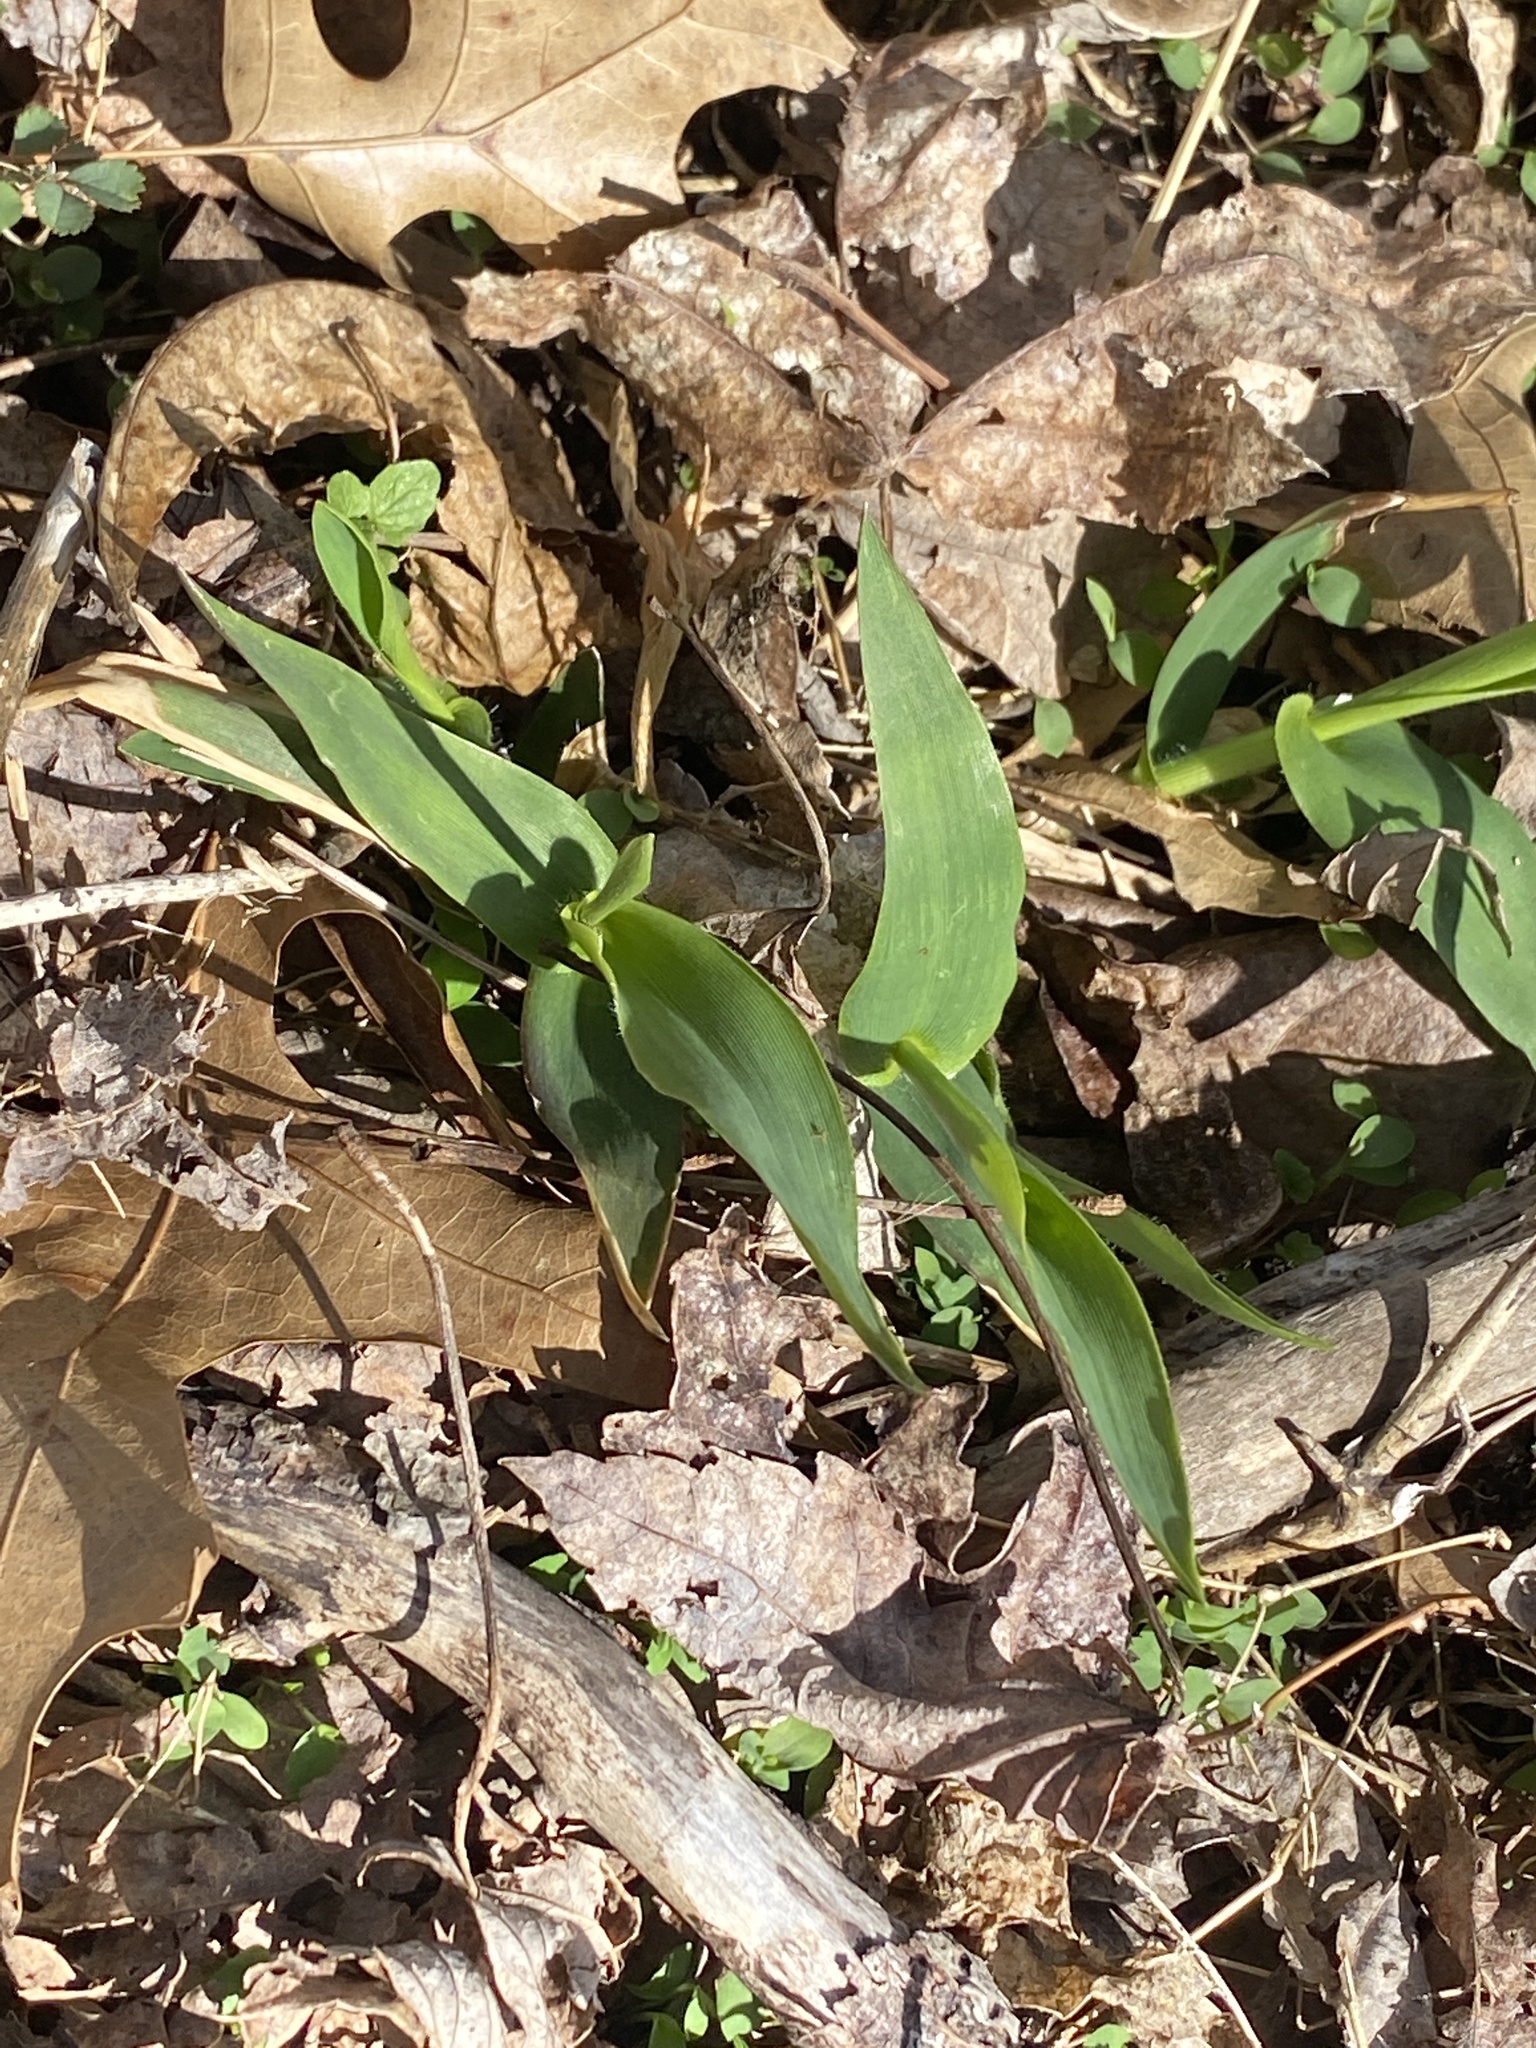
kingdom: Plantae
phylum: Tracheophyta
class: Liliopsida
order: Poales
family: Poaceae
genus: Dichanthelium
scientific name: Dichanthelium clandestinum
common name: Deer-tongue grass
